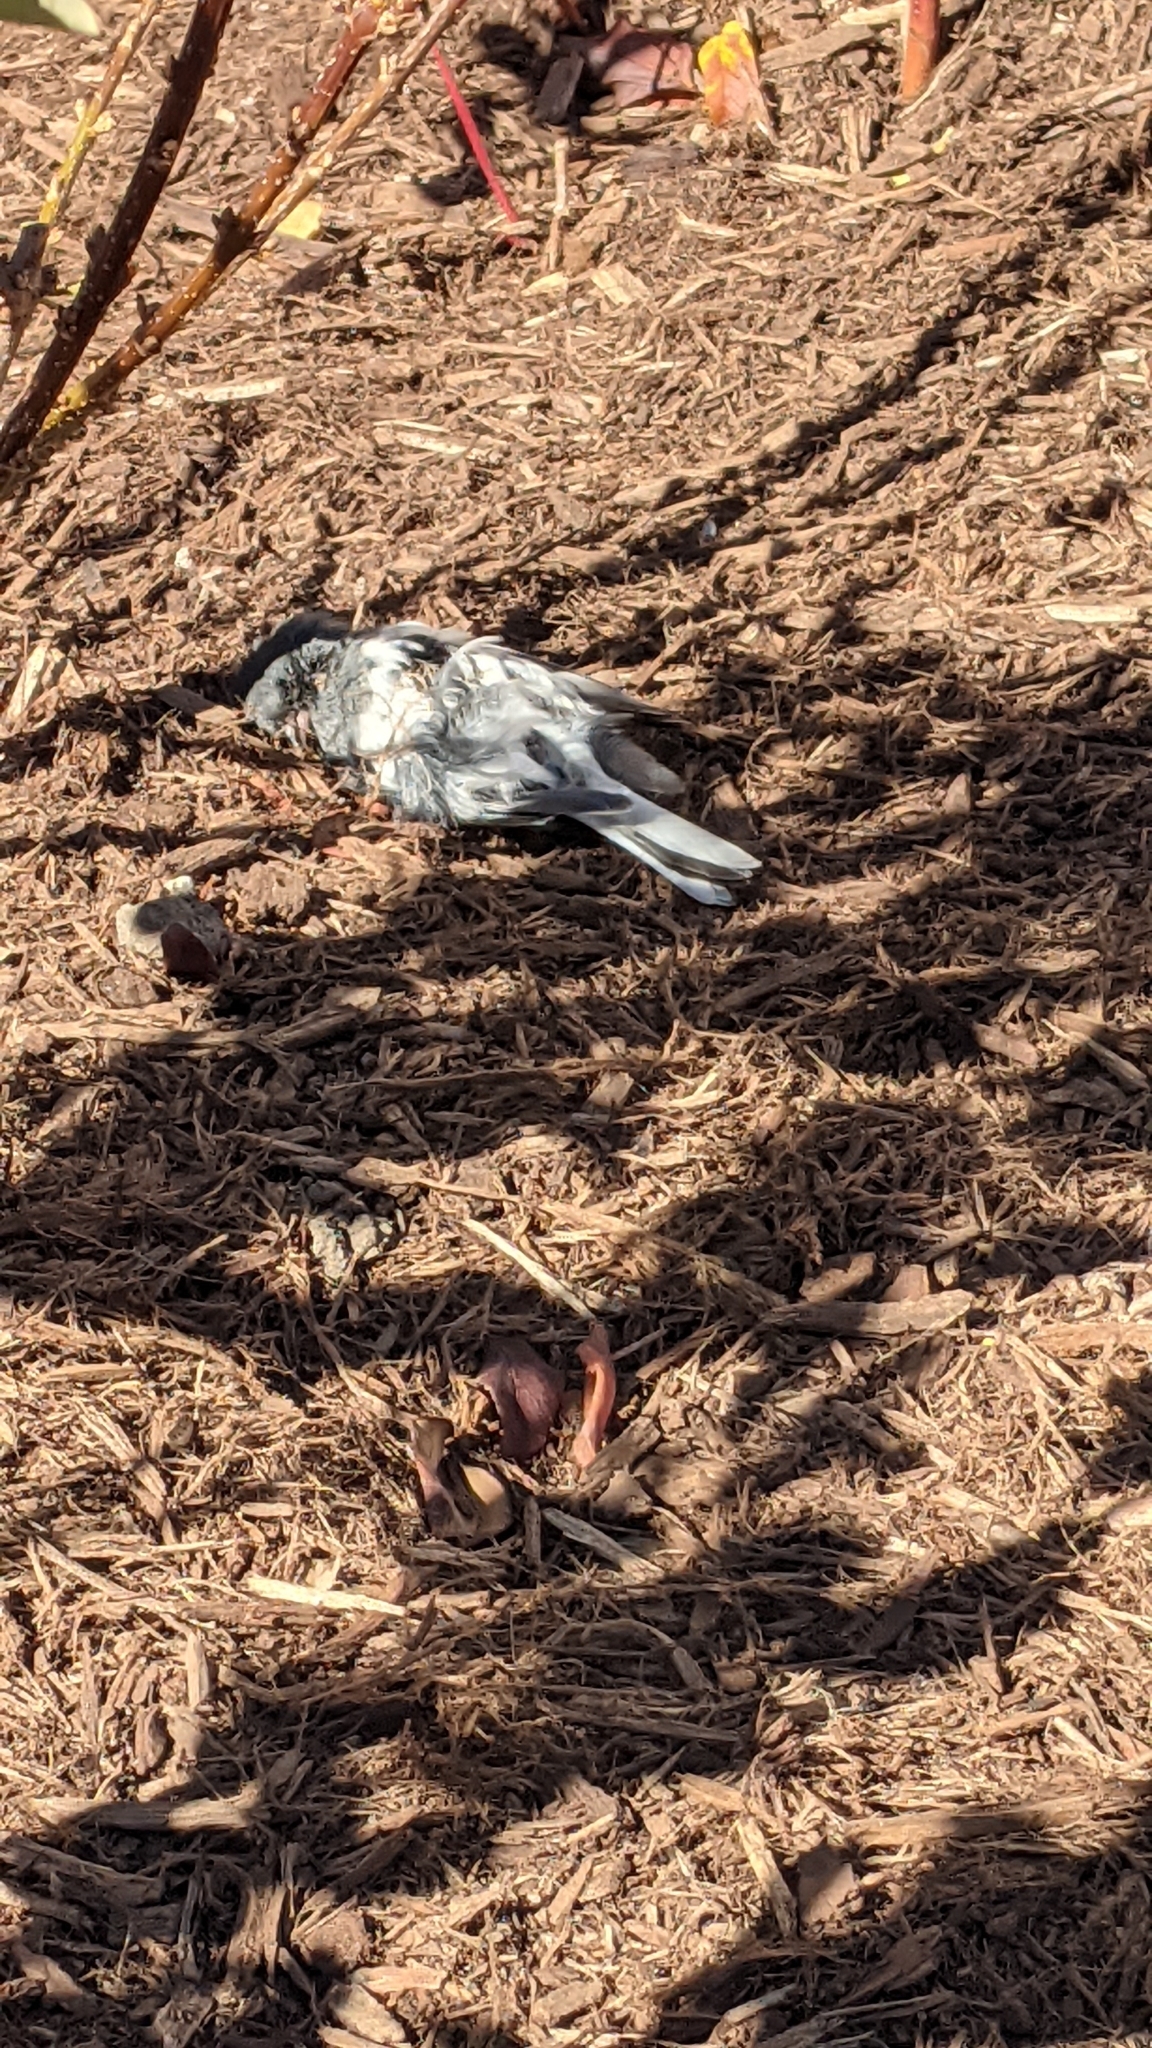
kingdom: Animalia
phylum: Chordata
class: Aves
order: Passeriformes
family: Passerellidae
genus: Junco
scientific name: Junco hyemalis
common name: Dark-eyed junco
